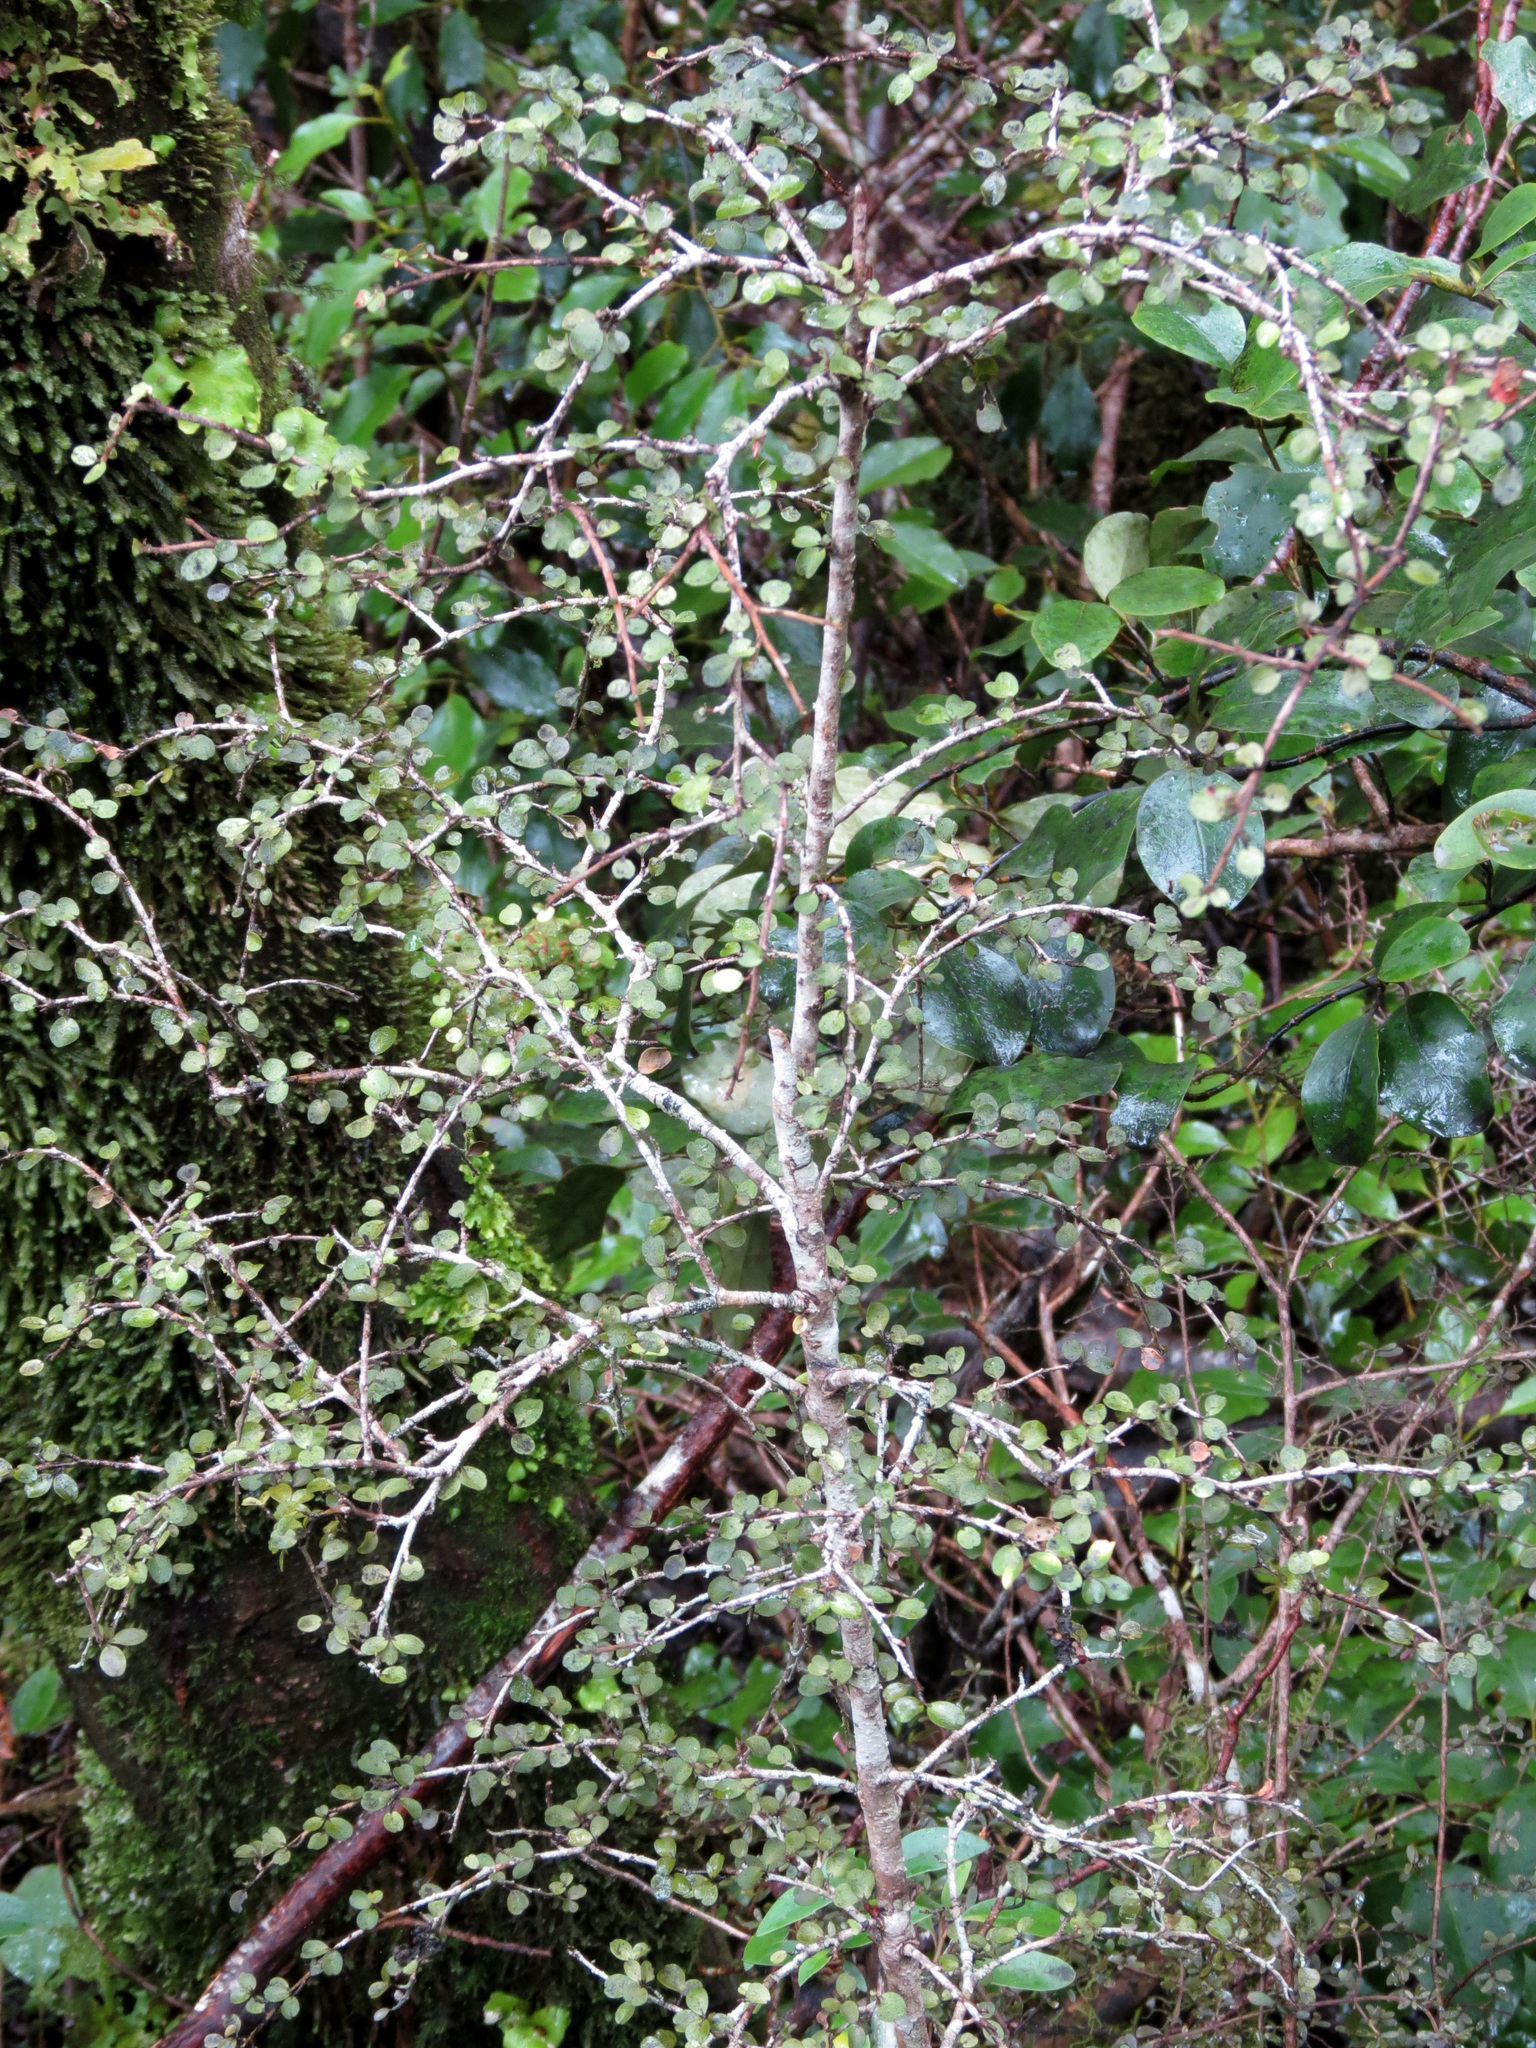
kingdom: Plantae
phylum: Tracheophyta
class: Magnoliopsida
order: Ericales
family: Primulaceae
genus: Myrsine
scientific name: Myrsine divaricata
